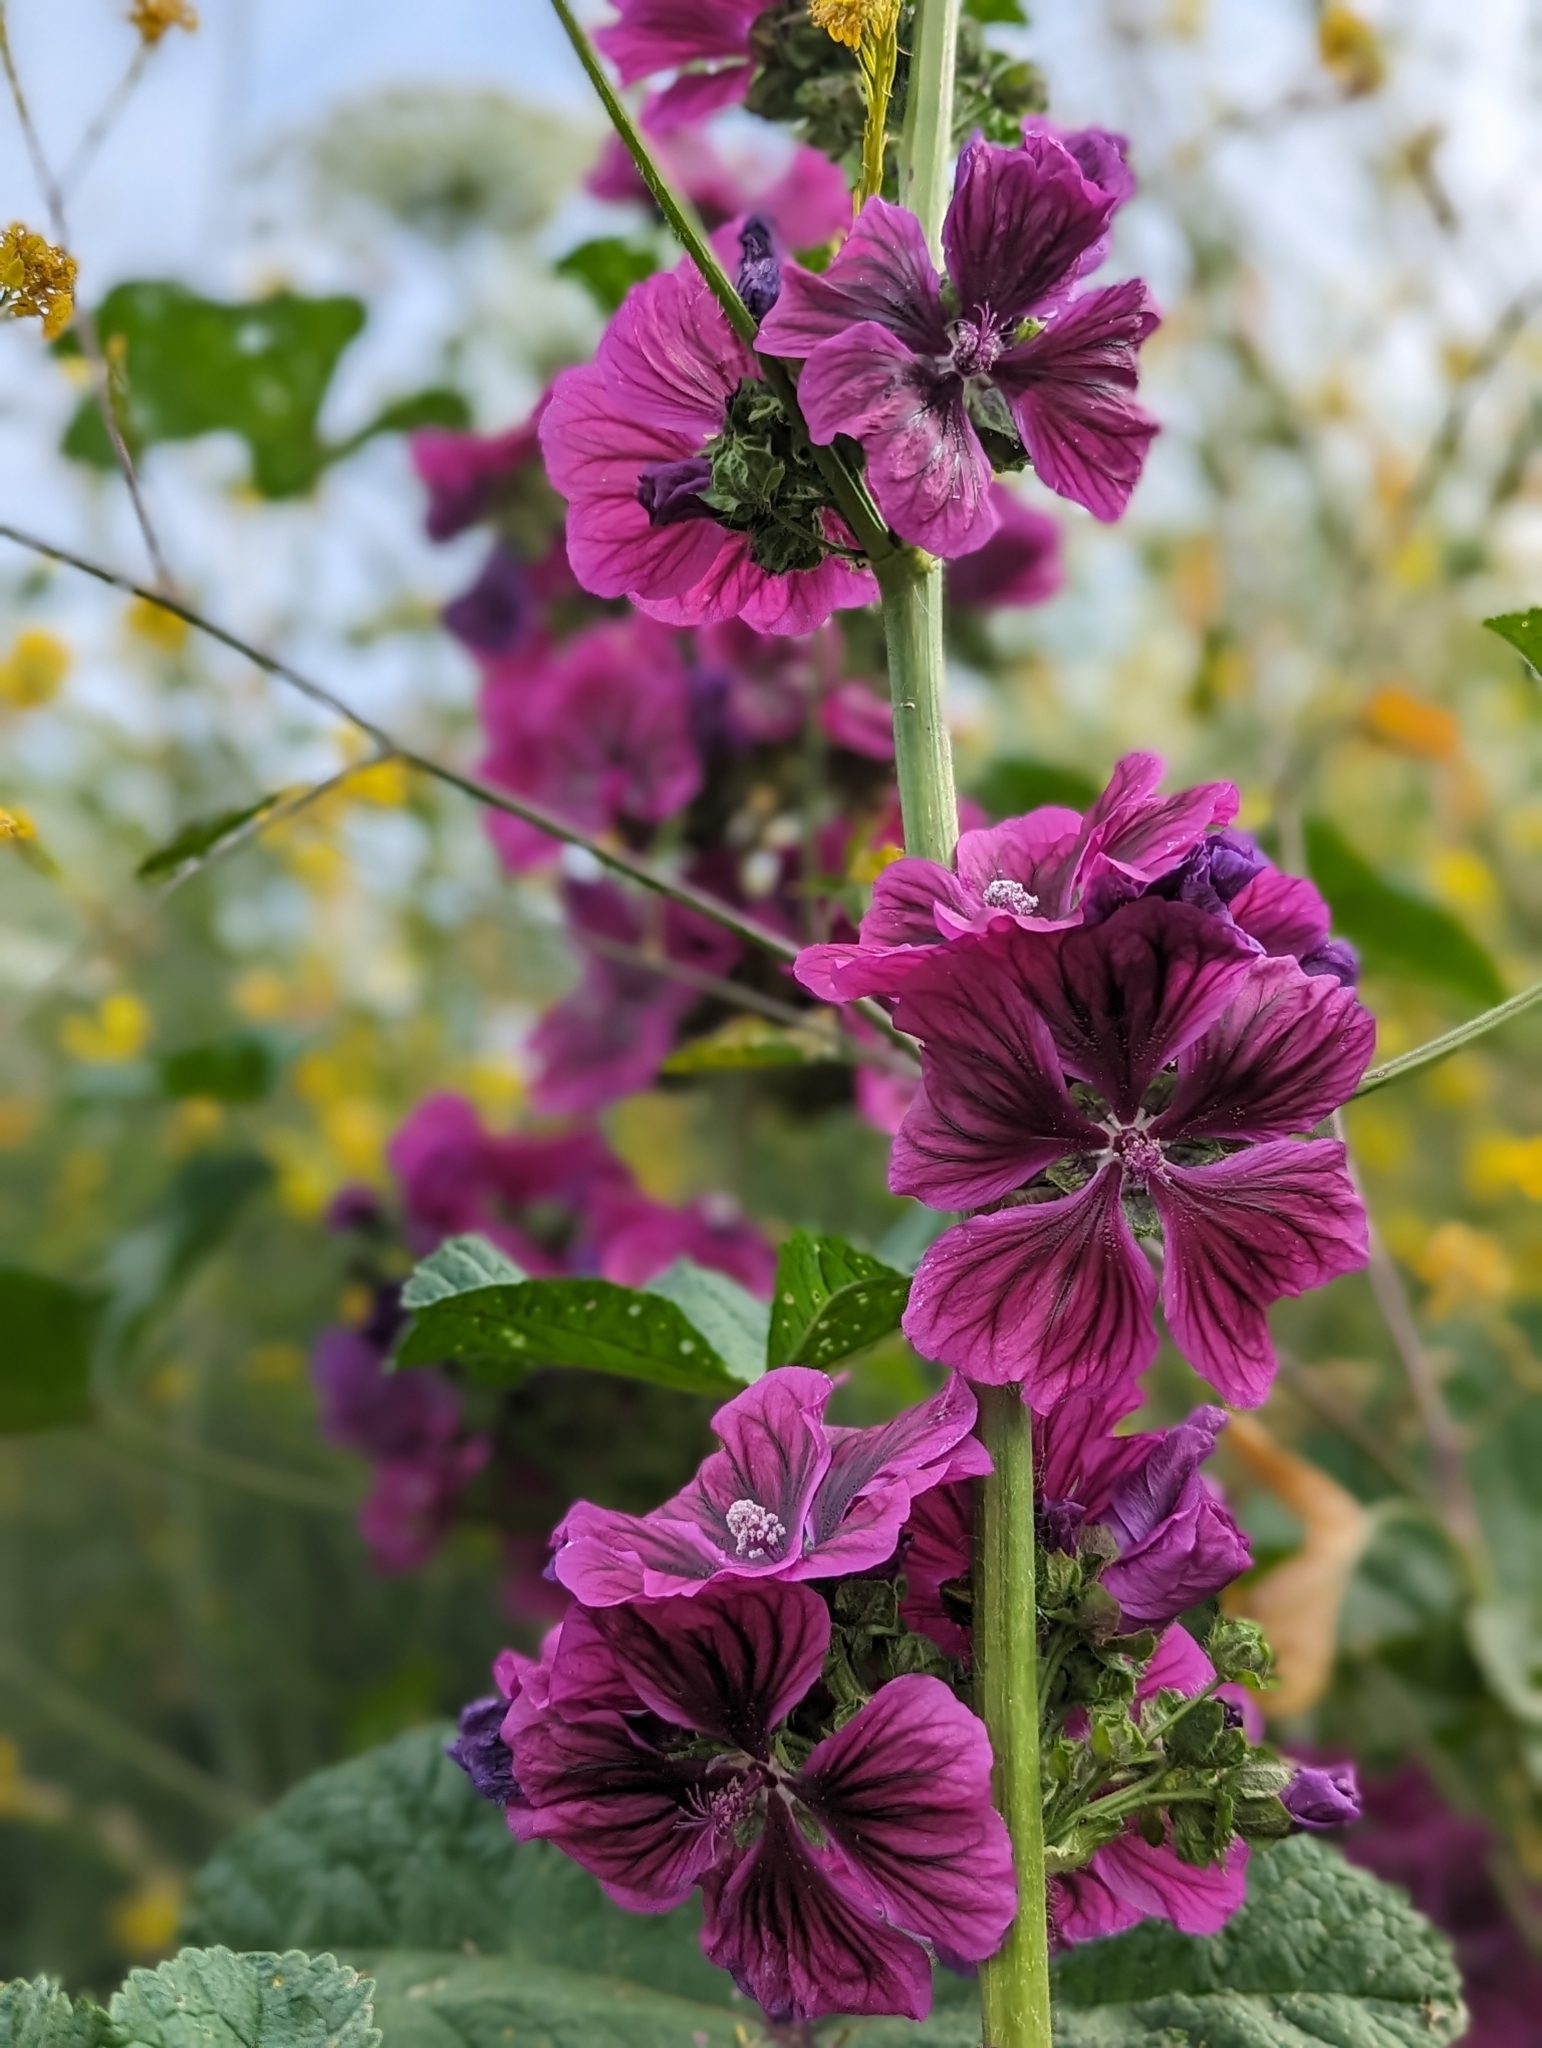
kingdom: Plantae
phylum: Tracheophyta
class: Magnoliopsida
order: Malvales
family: Malvaceae
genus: Malva
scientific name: Malva sylvestris
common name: Common mallow
